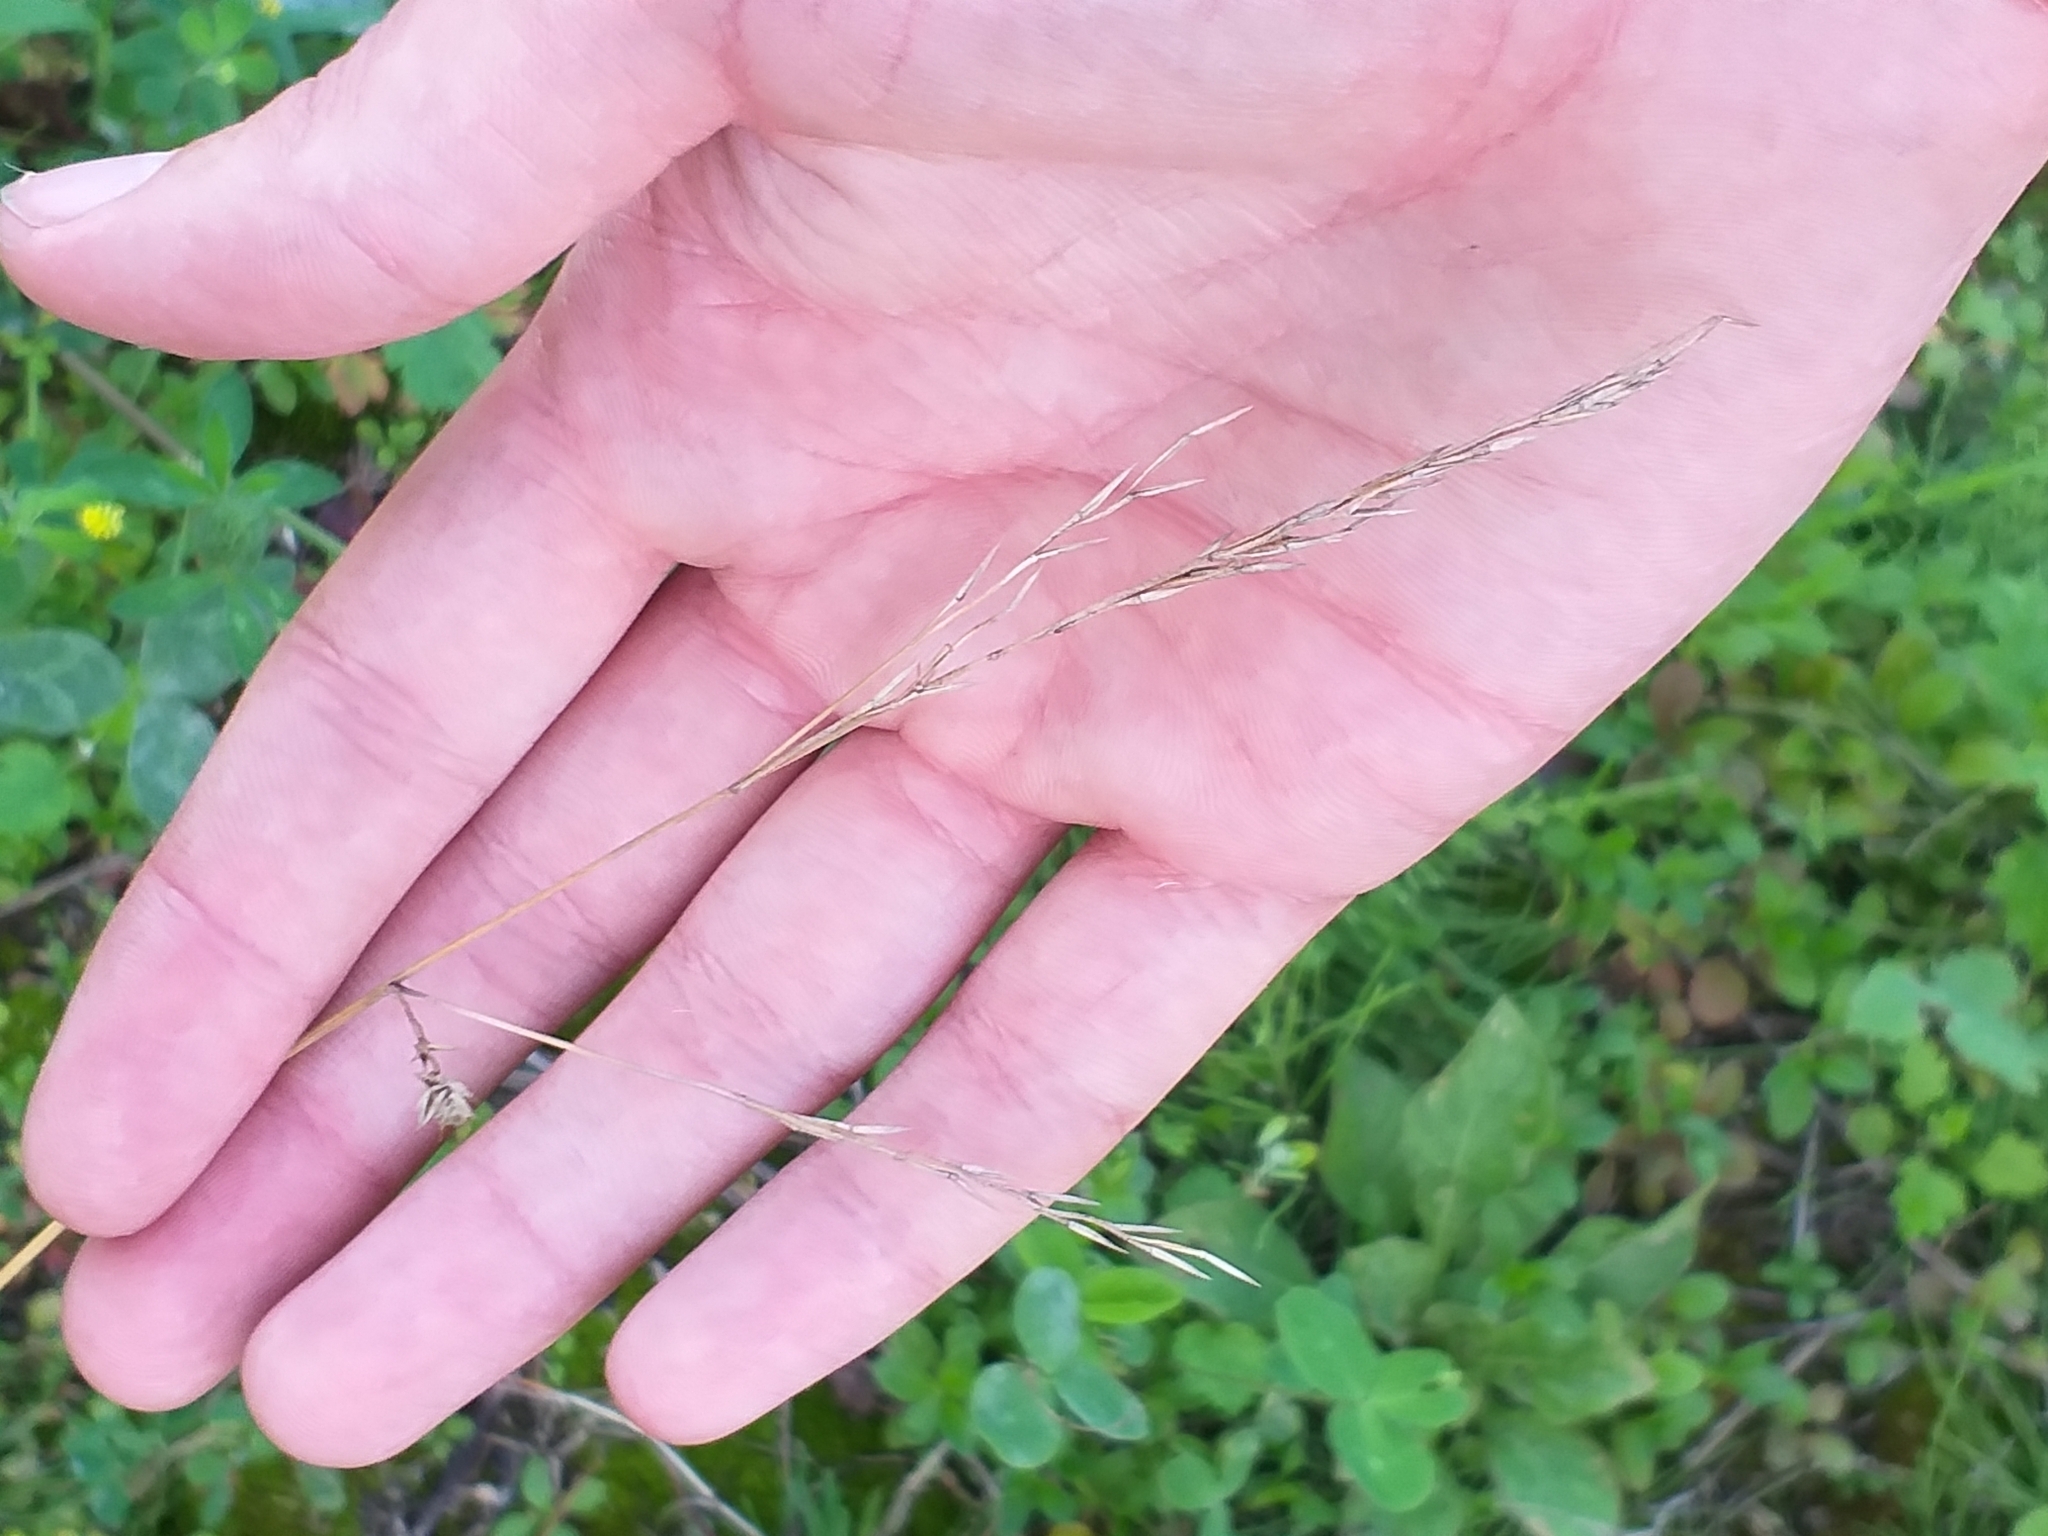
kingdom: Plantae
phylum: Tracheophyta
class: Liliopsida
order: Poales
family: Poaceae
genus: Deschampsia
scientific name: Deschampsia cespitosa
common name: Tufted hair-grass
